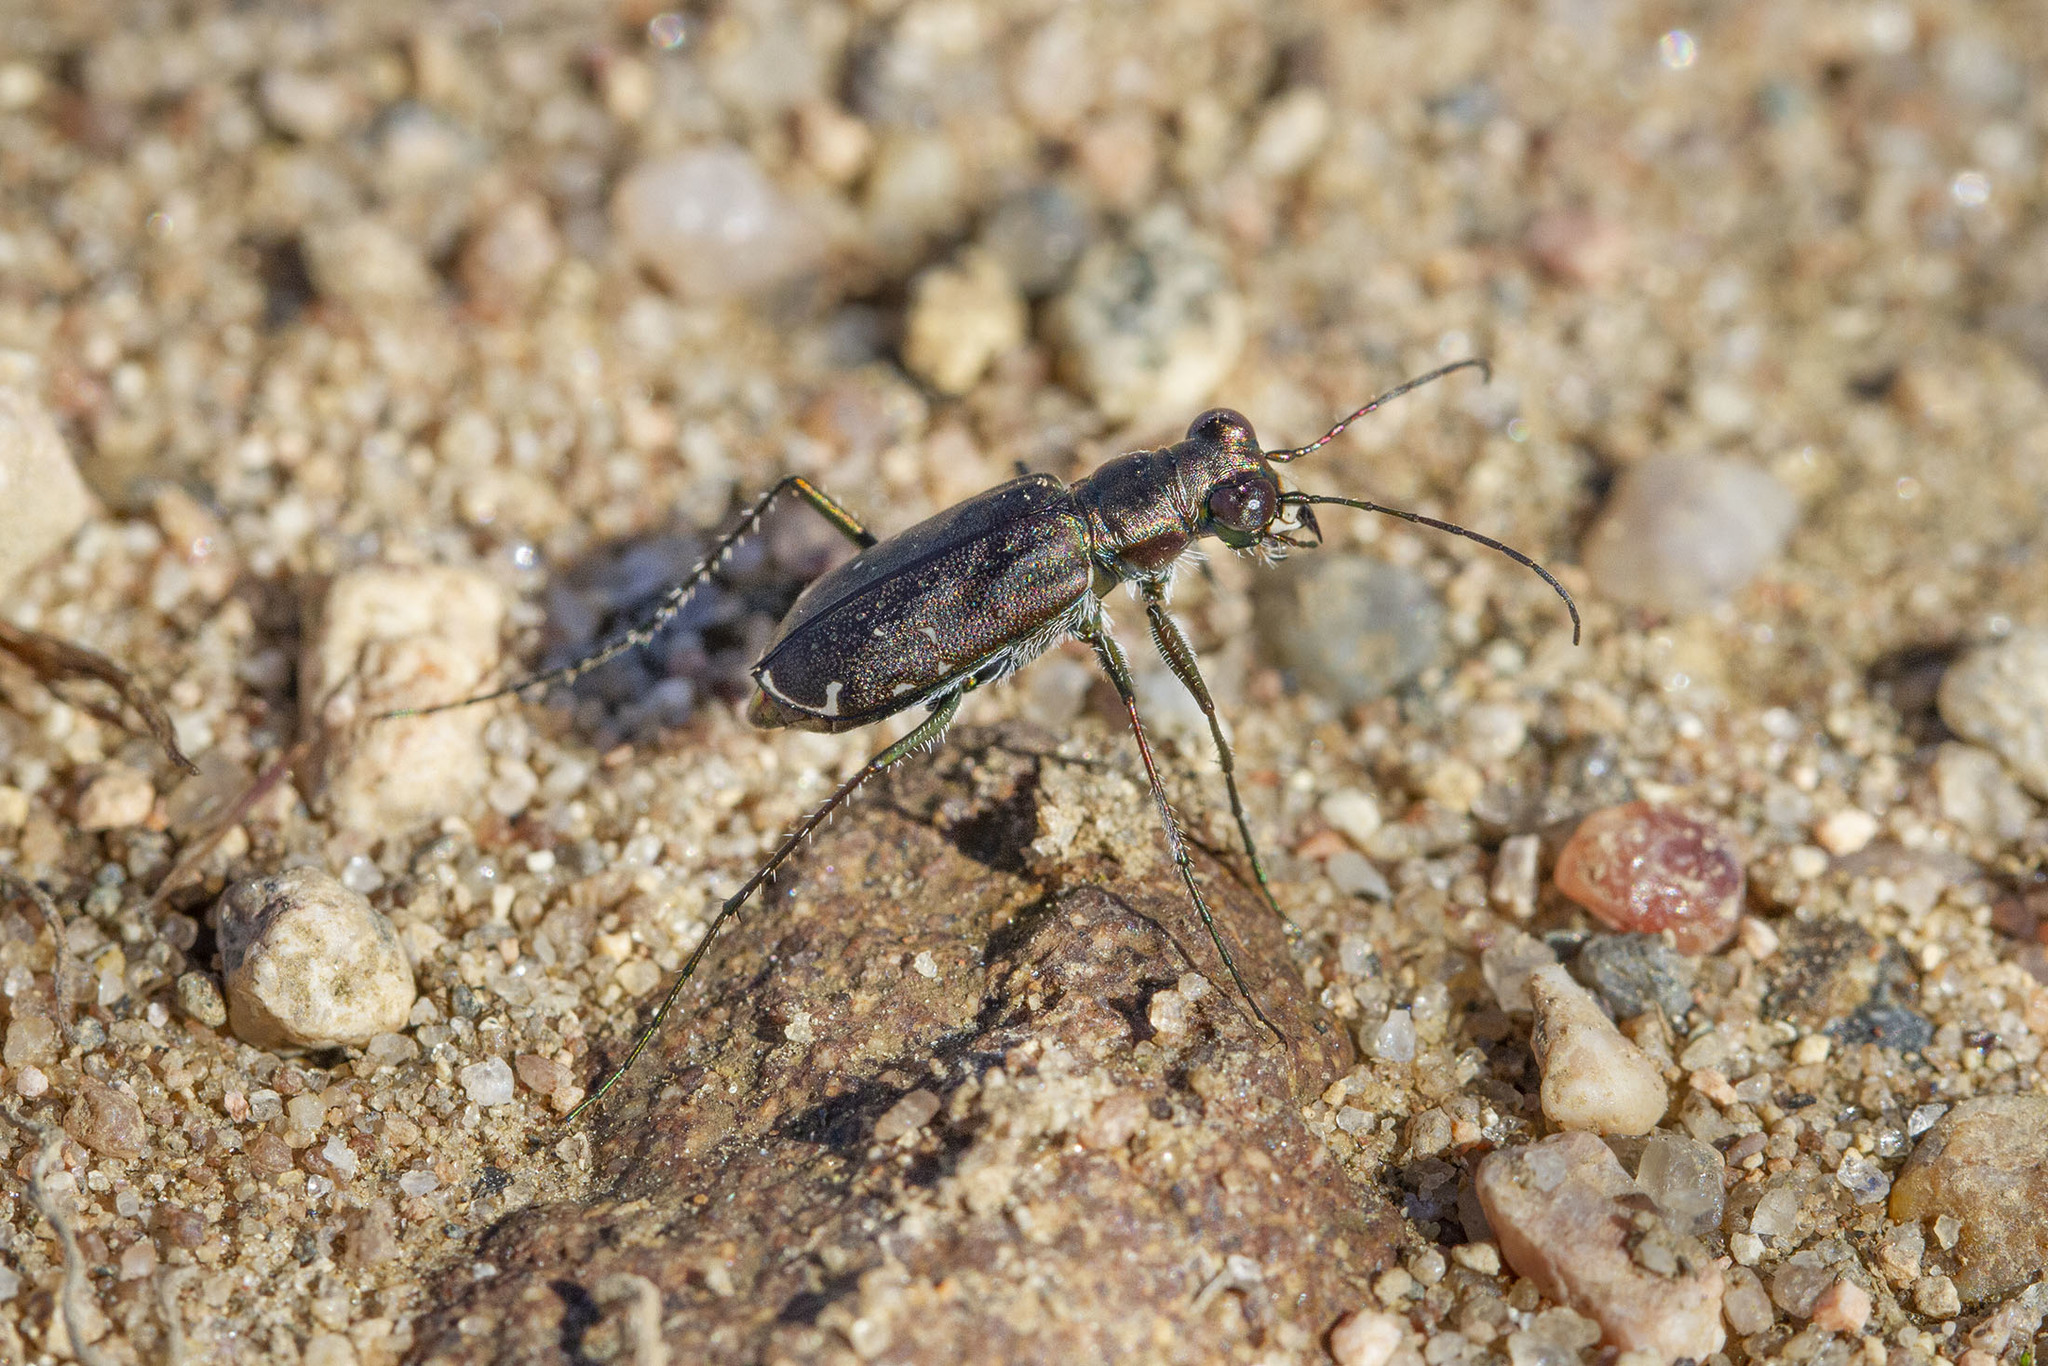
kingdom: Animalia
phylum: Arthropoda
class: Insecta
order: Coleoptera
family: Carabidae
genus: Cicindela
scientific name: Cicindela punctulata
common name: Punctured tiger beetle
